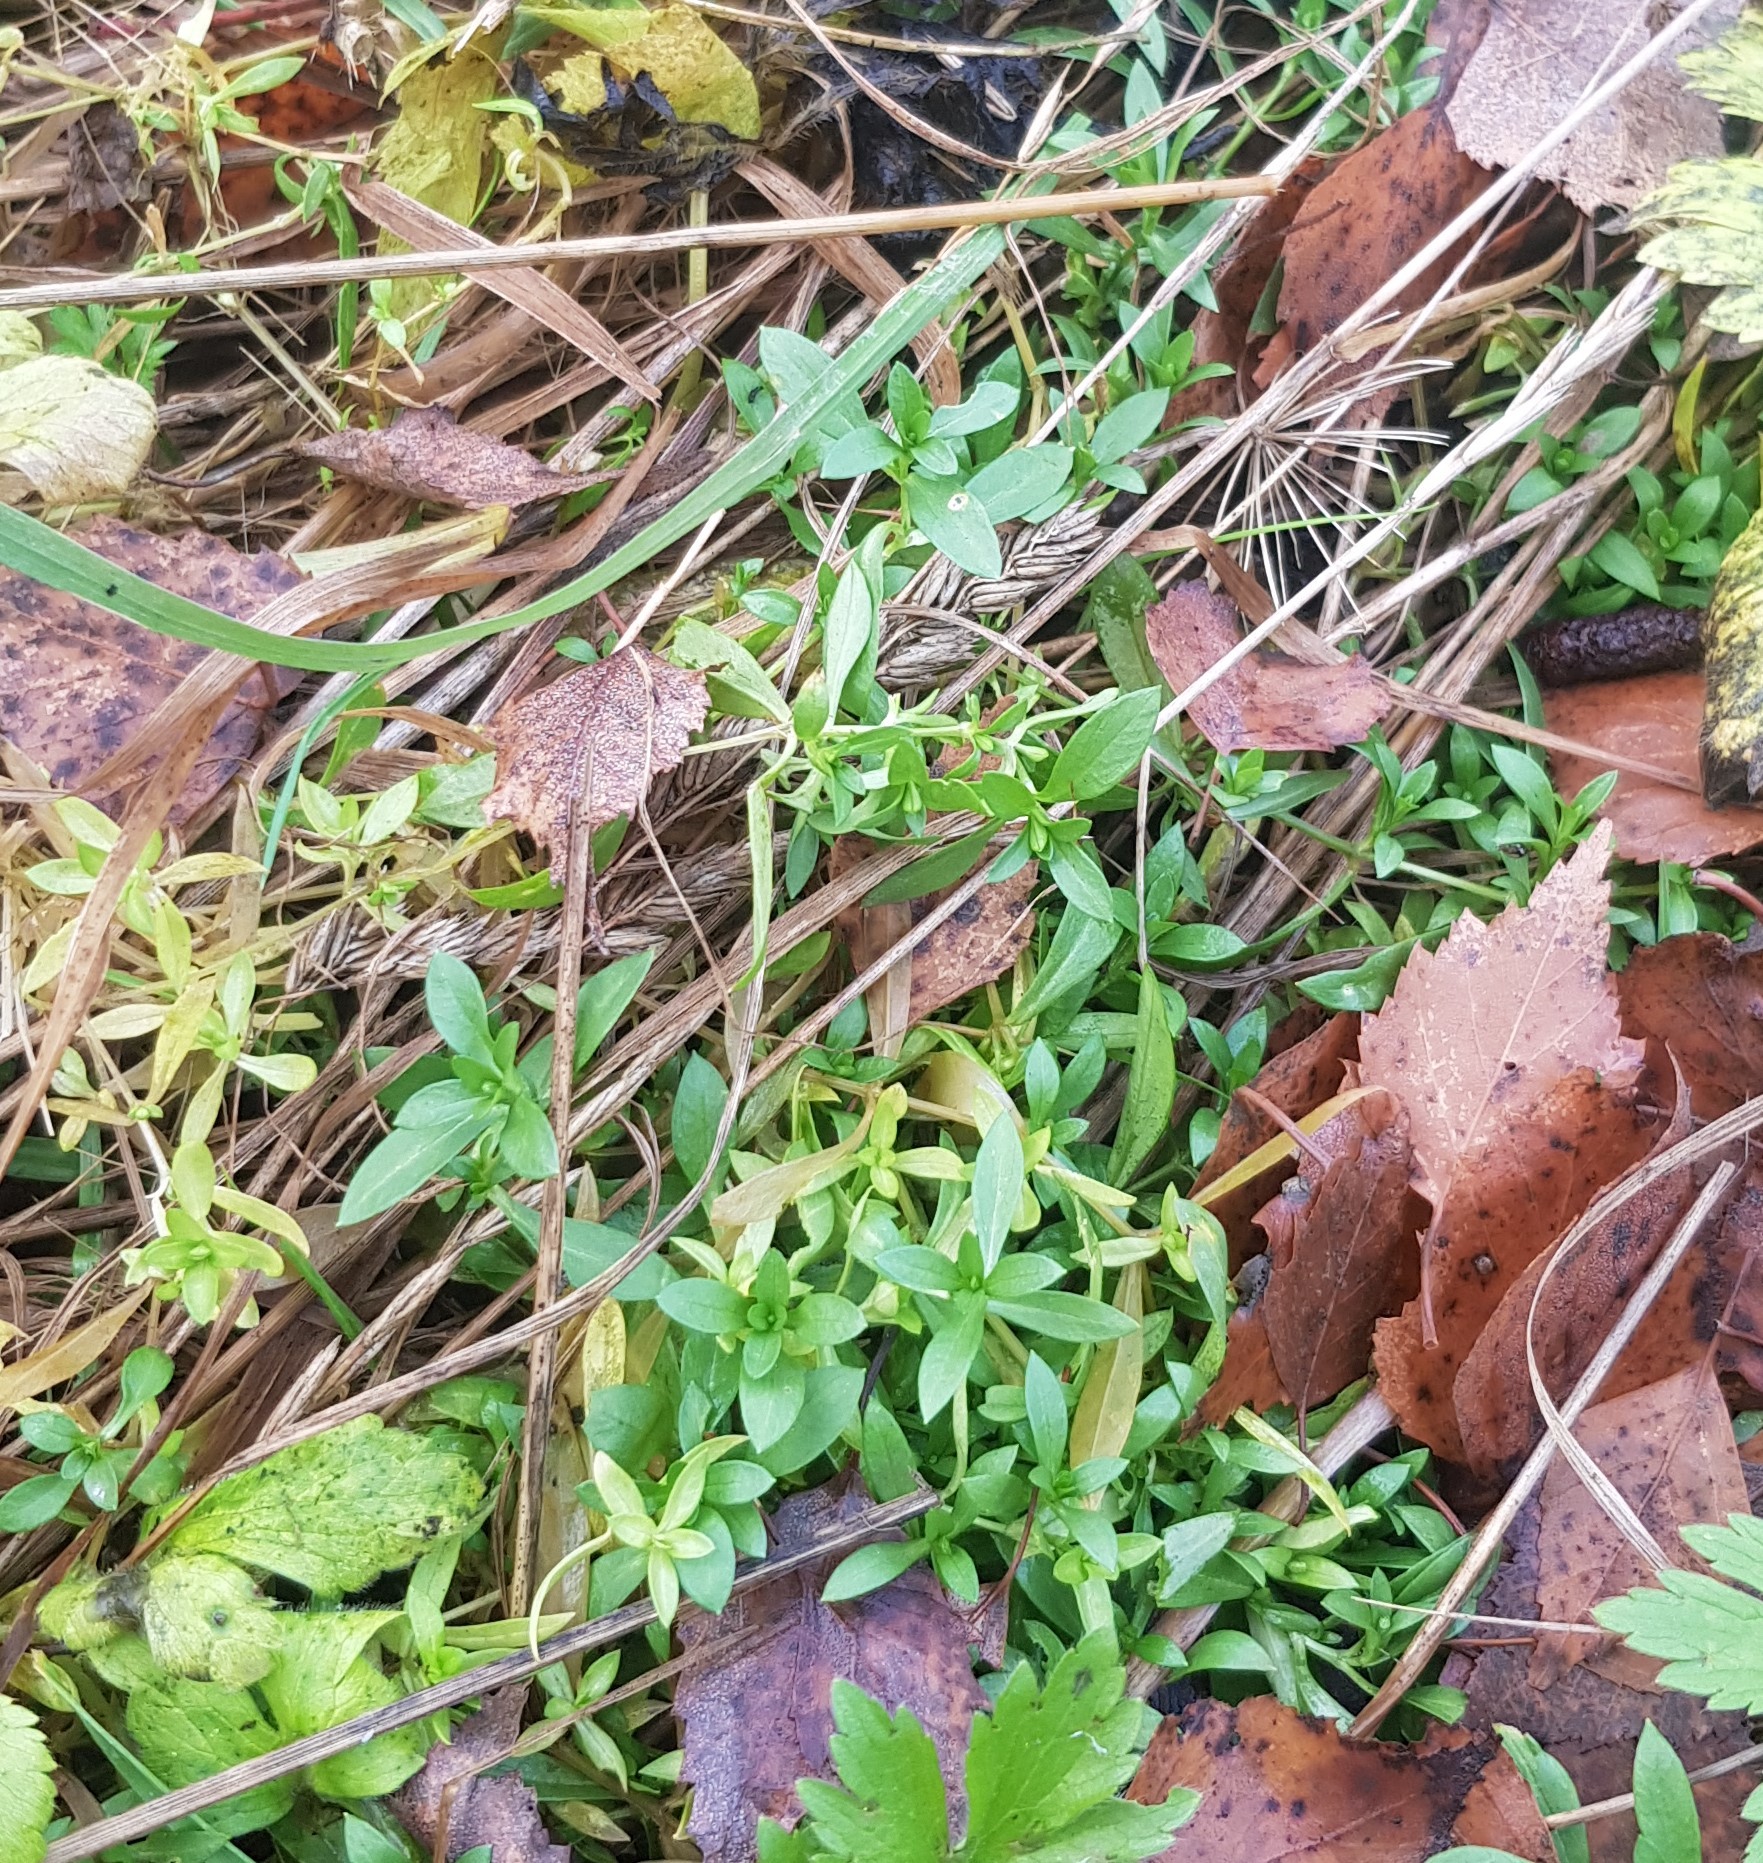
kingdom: Plantae
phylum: Tracheophyta
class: Magnoliopsida
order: Caryophyllales
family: Caryophyllaceae
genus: Stellaria
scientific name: Stellaria graminea
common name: Grass-like starwort
